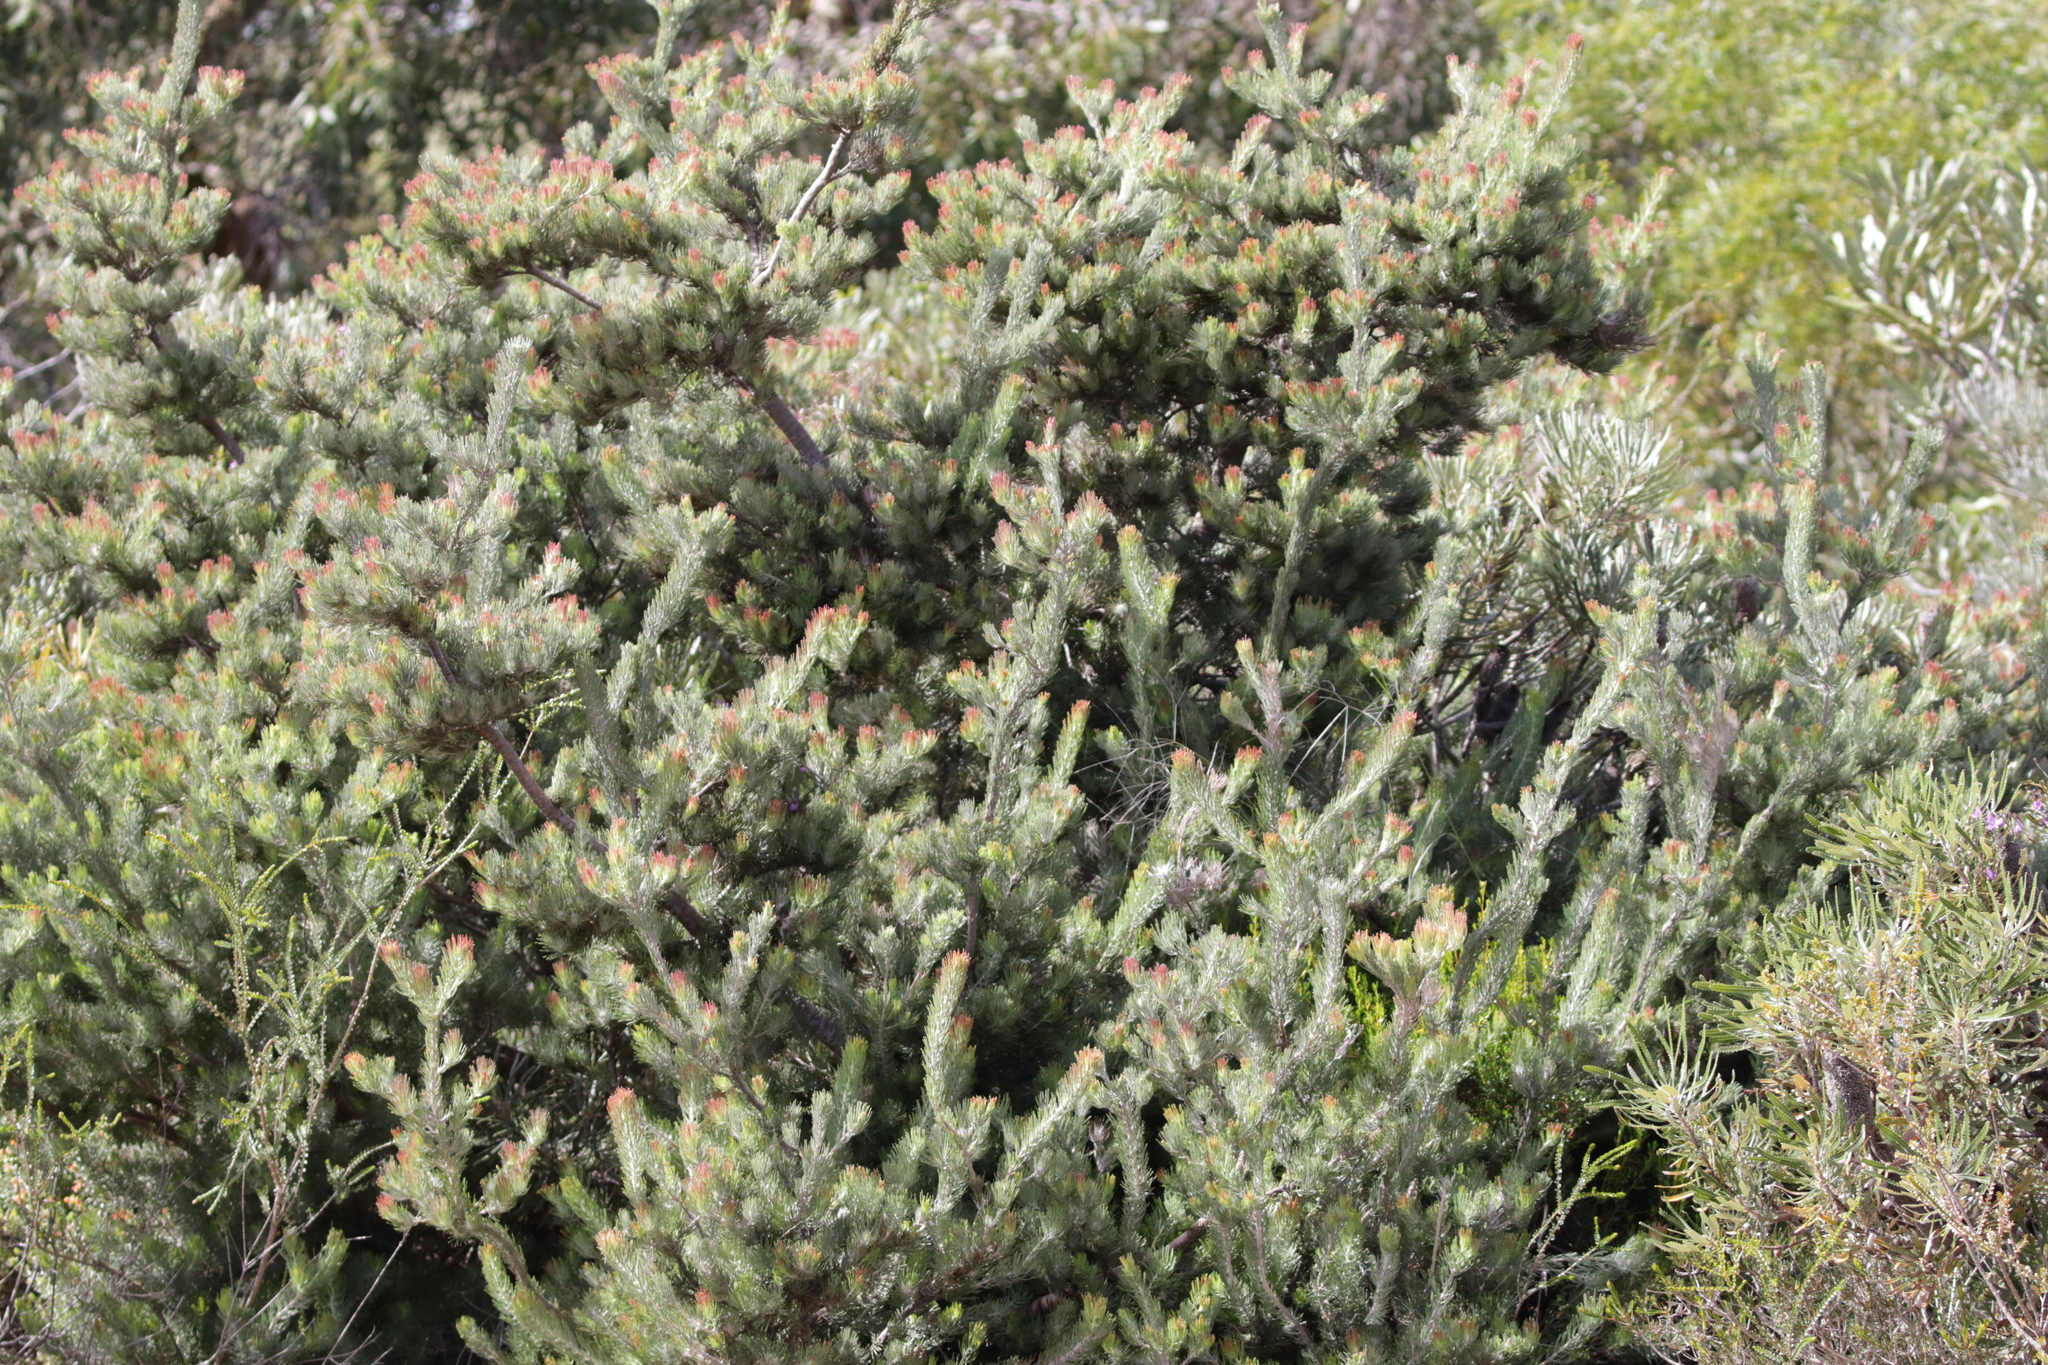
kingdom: Plantae
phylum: Tracheophyta
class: Magnoliopsida
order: Proteales
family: Proteaceae
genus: Adenanthos
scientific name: Adenanthos cygnorum
